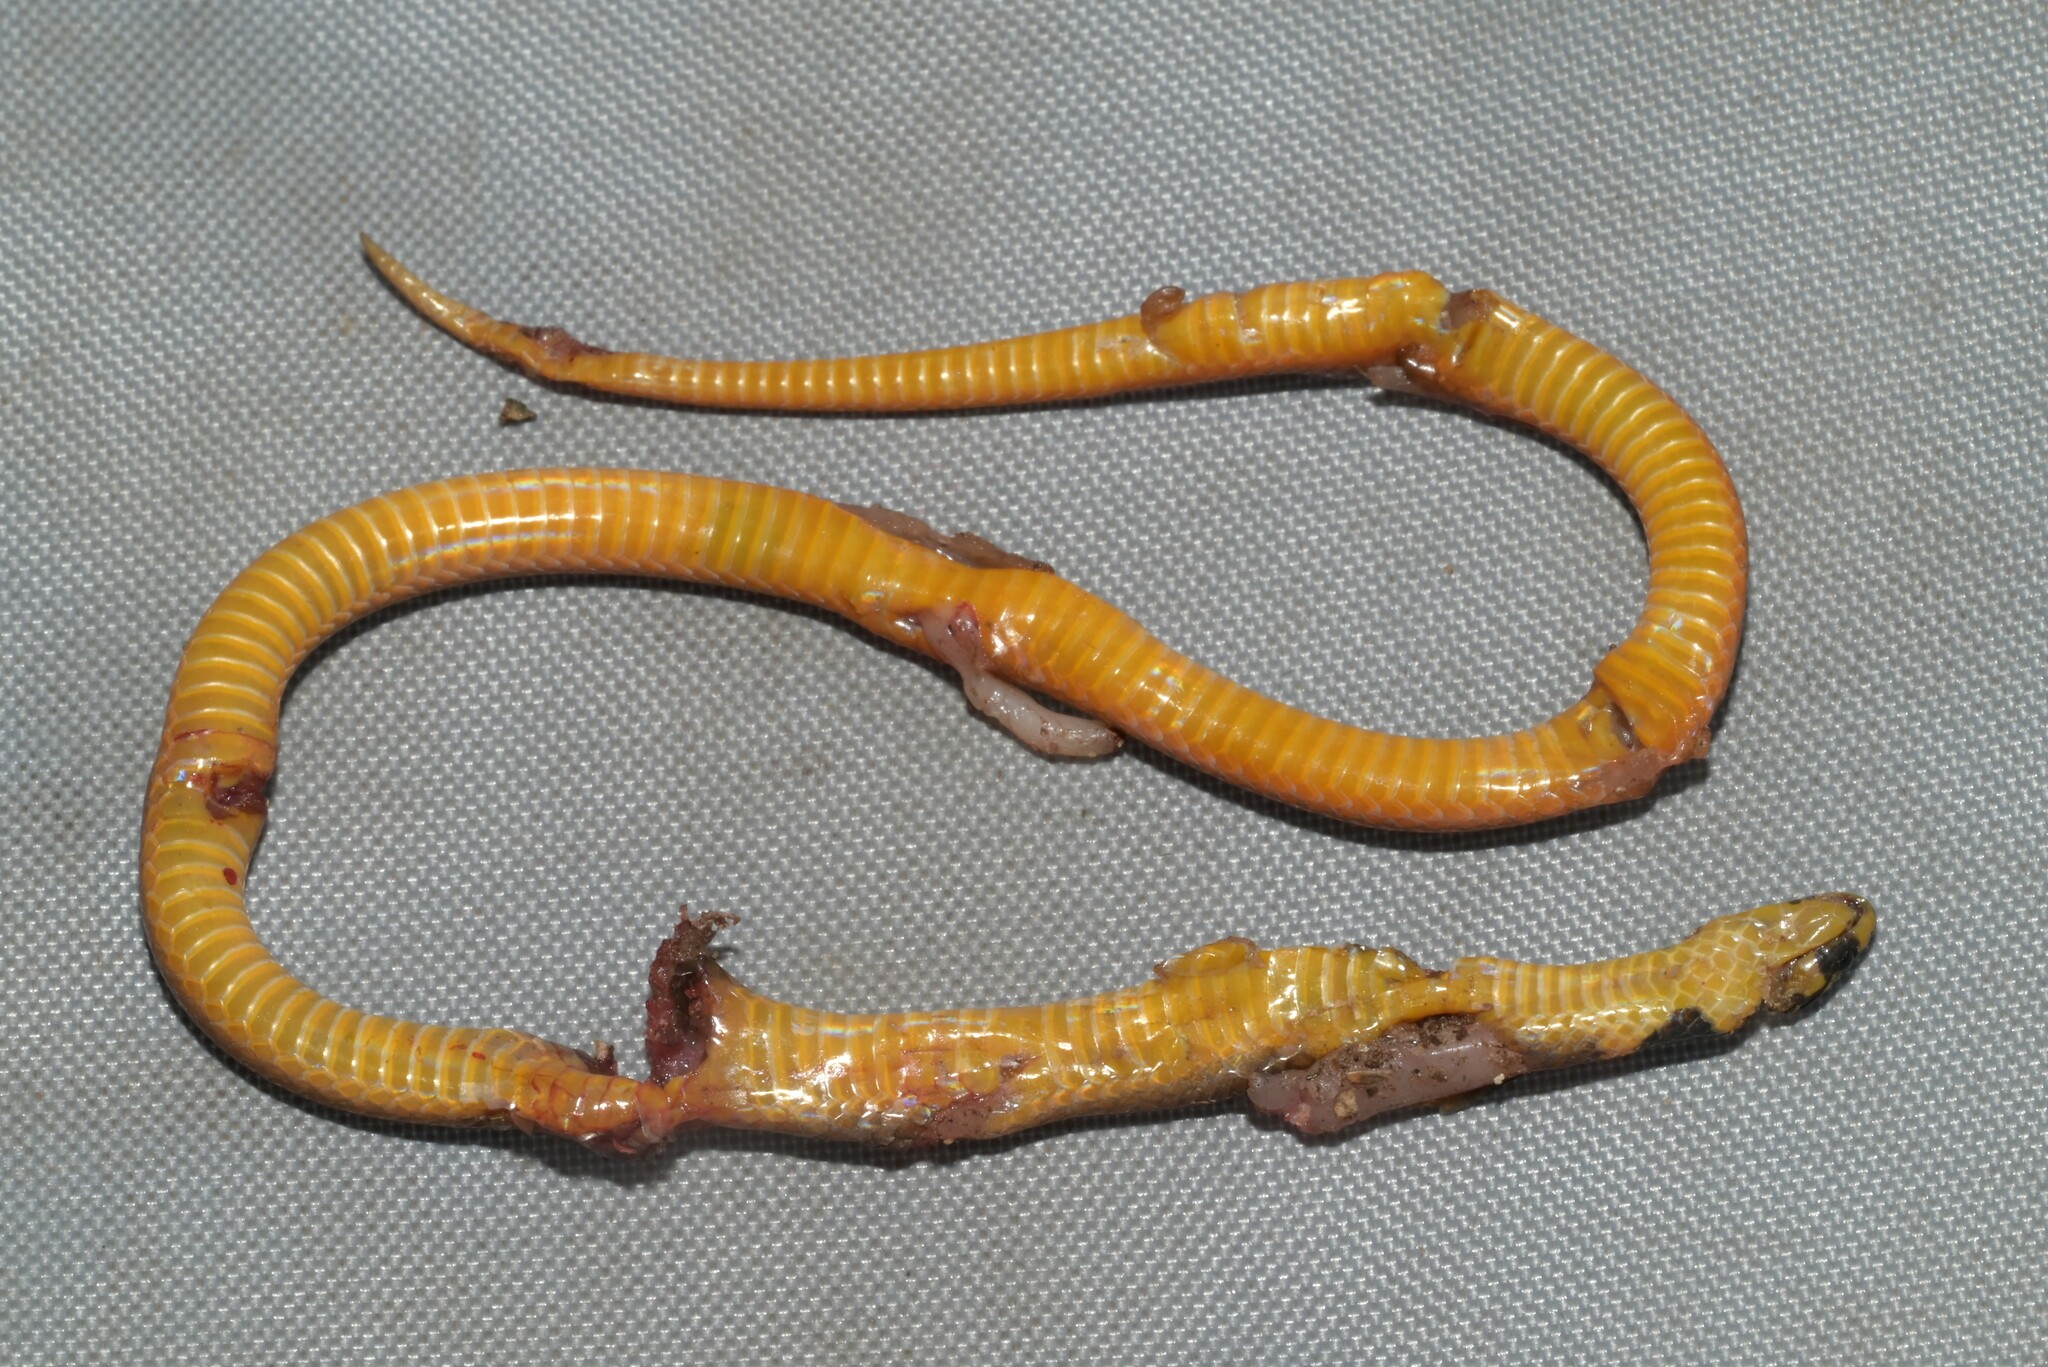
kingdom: Animalia
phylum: Chordata
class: Squamata
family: Atractaspididae
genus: Aparallactus
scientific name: Aparallactus guentheri
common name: Black centipede eater
